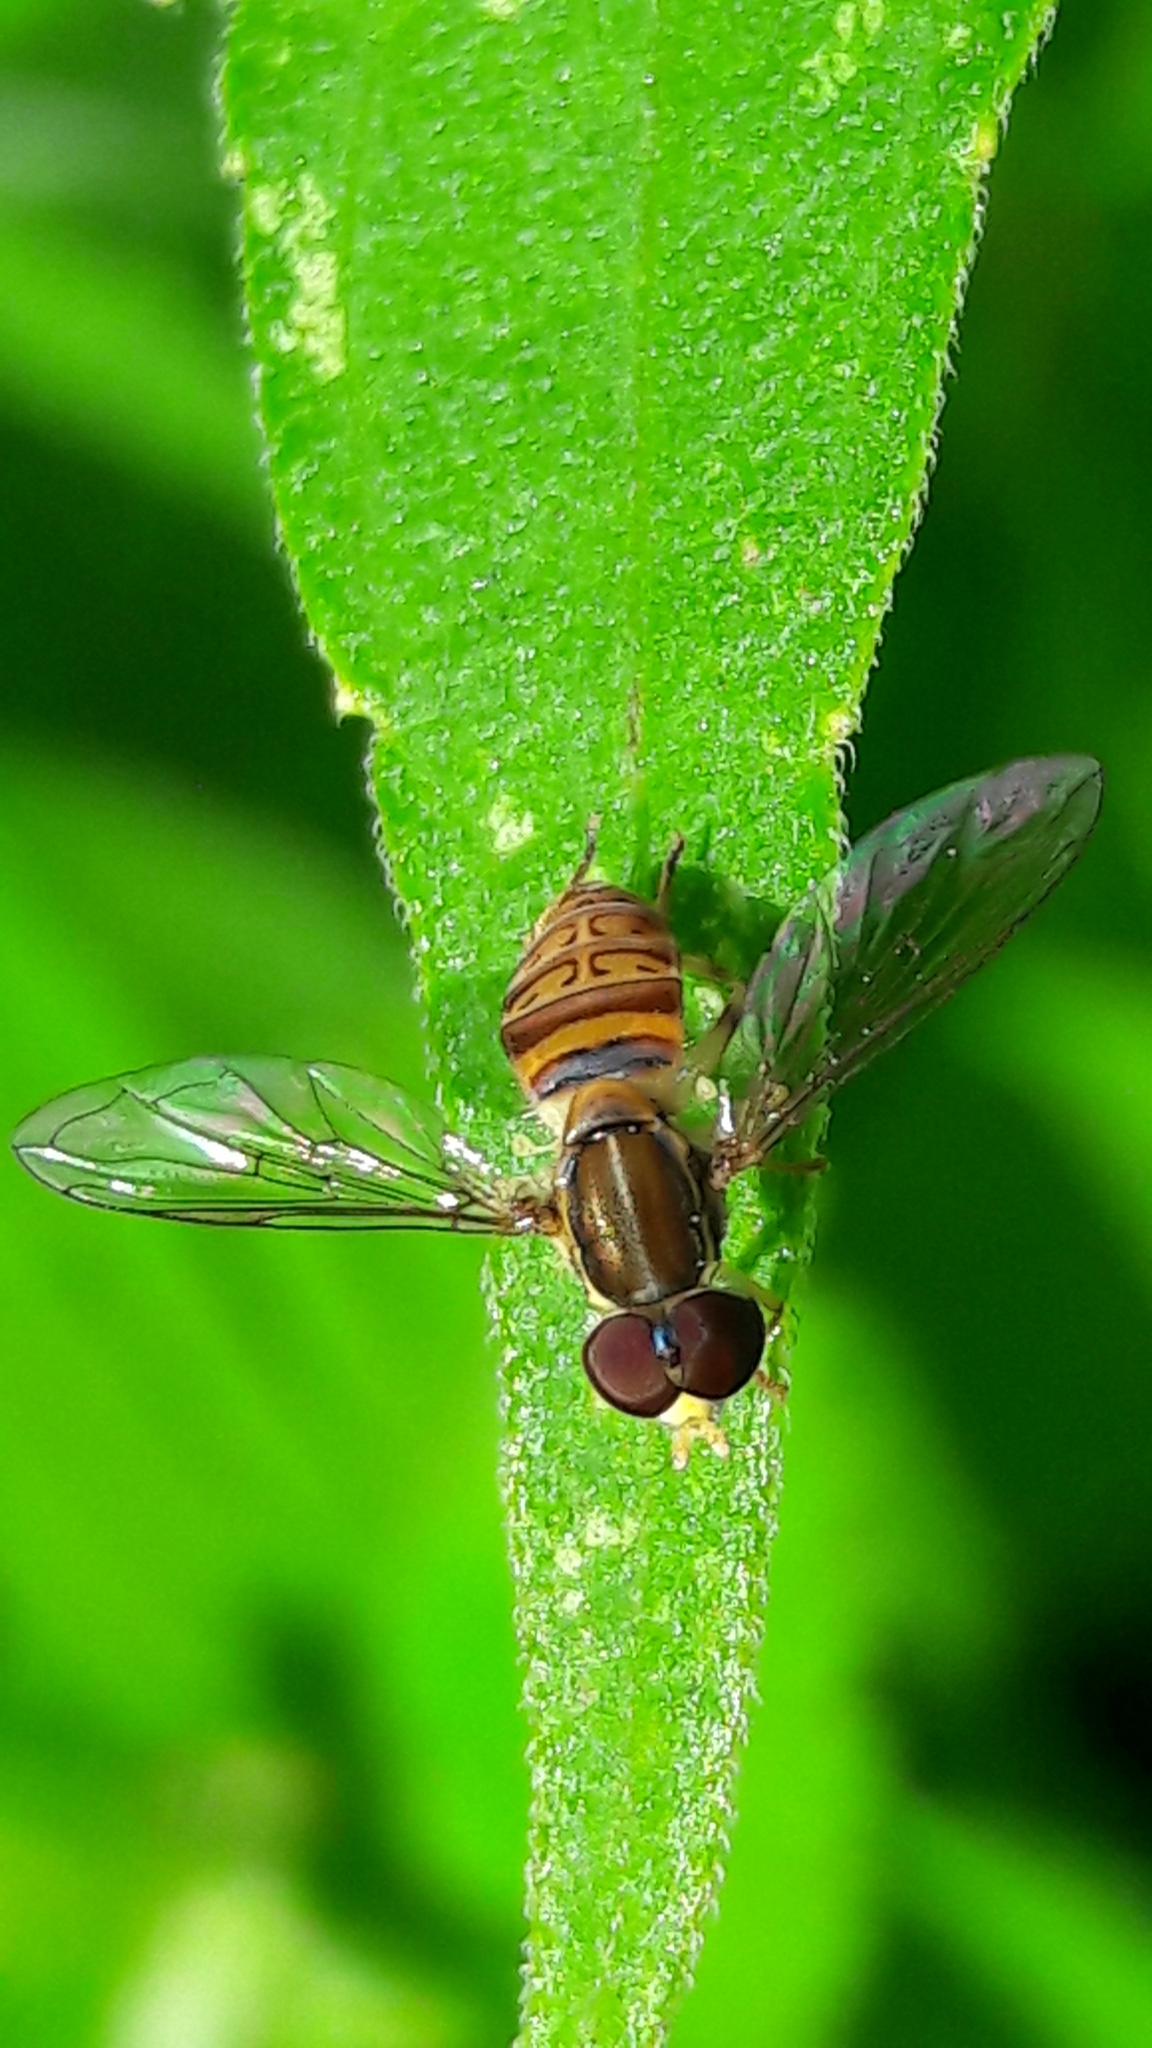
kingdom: Animalia
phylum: Arthropoda
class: Insecta
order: Diptera
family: Syrphidae
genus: Toxomerus
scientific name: Toxomerus pulchellus
